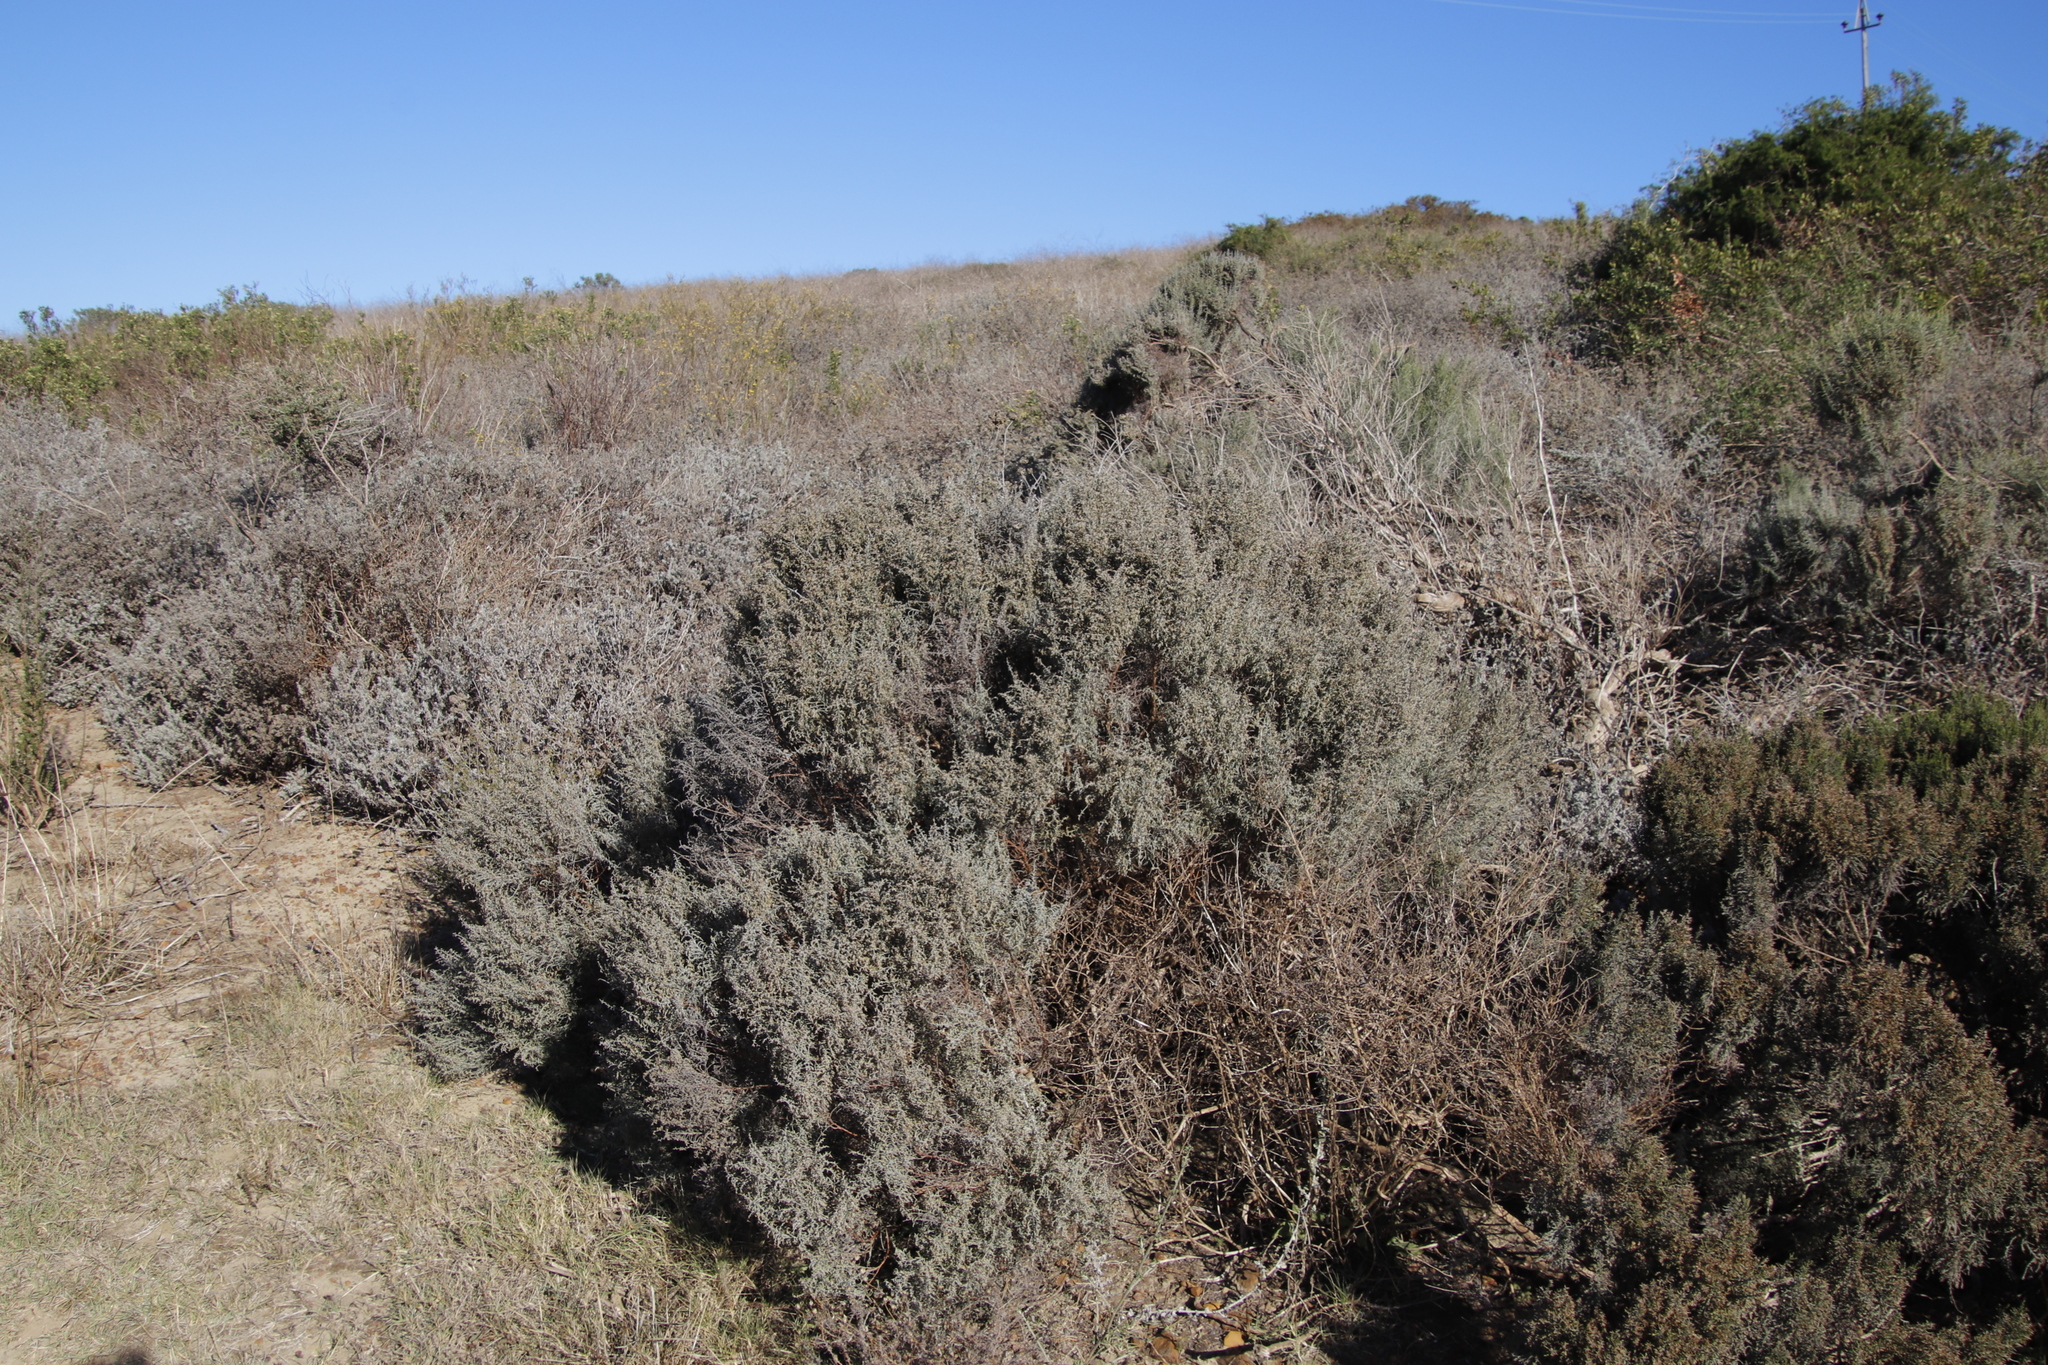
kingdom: Plantae
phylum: Tracheophyta
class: Magnoliopsida
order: Asterales
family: Asteraceae
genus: Dicerothamnus
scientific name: Dicerothamnus rhinocerotis
